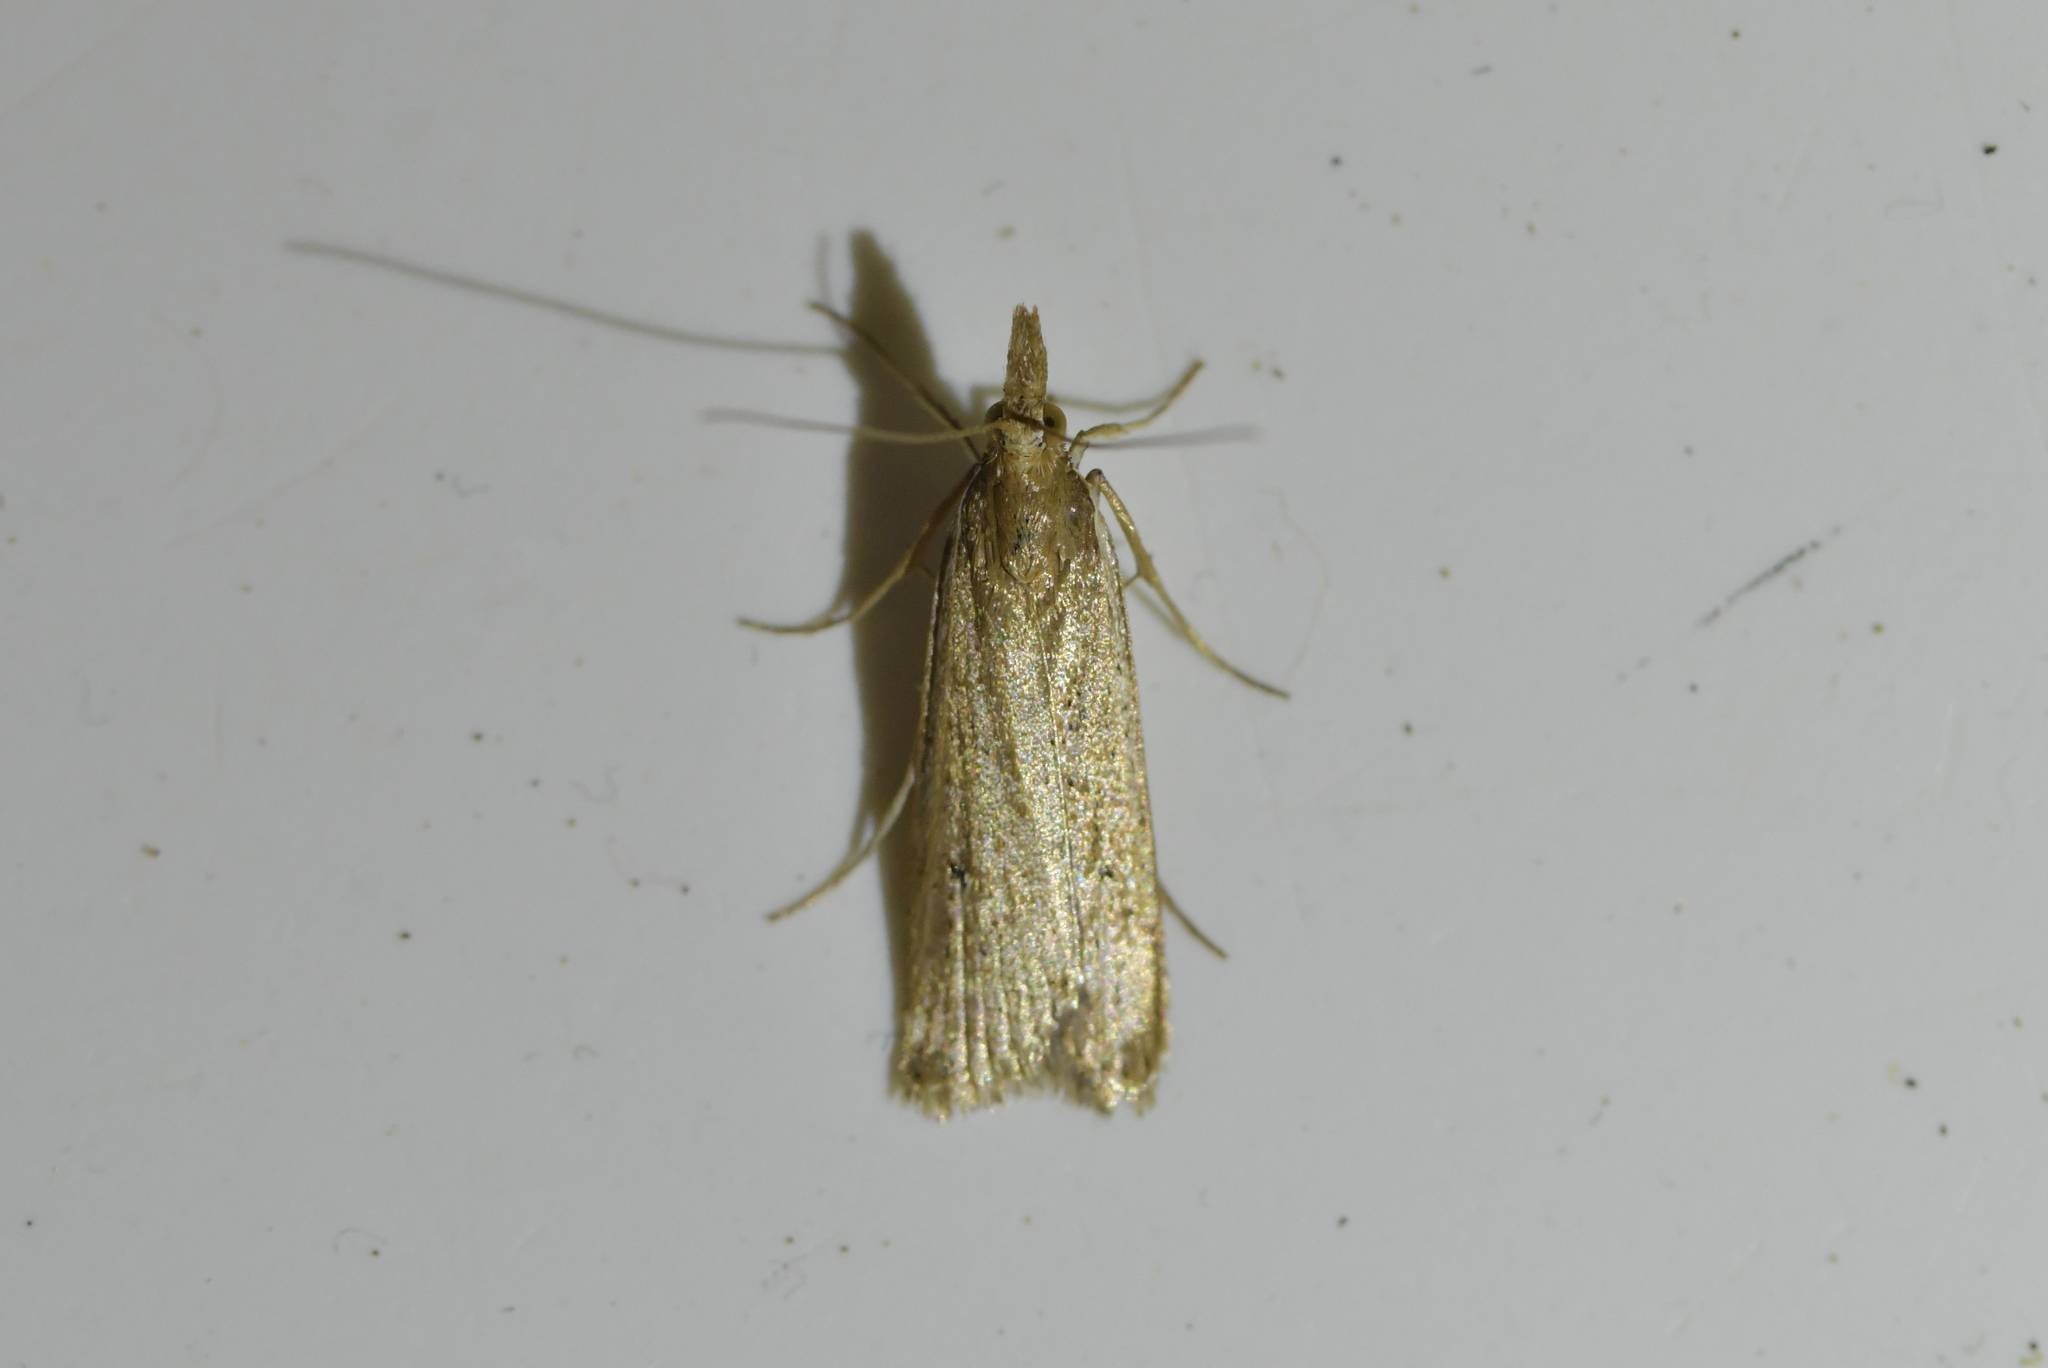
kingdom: Animalia
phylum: Arthropoda
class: Insecta
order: Lepidoptera
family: Crambidae
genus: Eudonia
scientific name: Eudonia sabulosella
